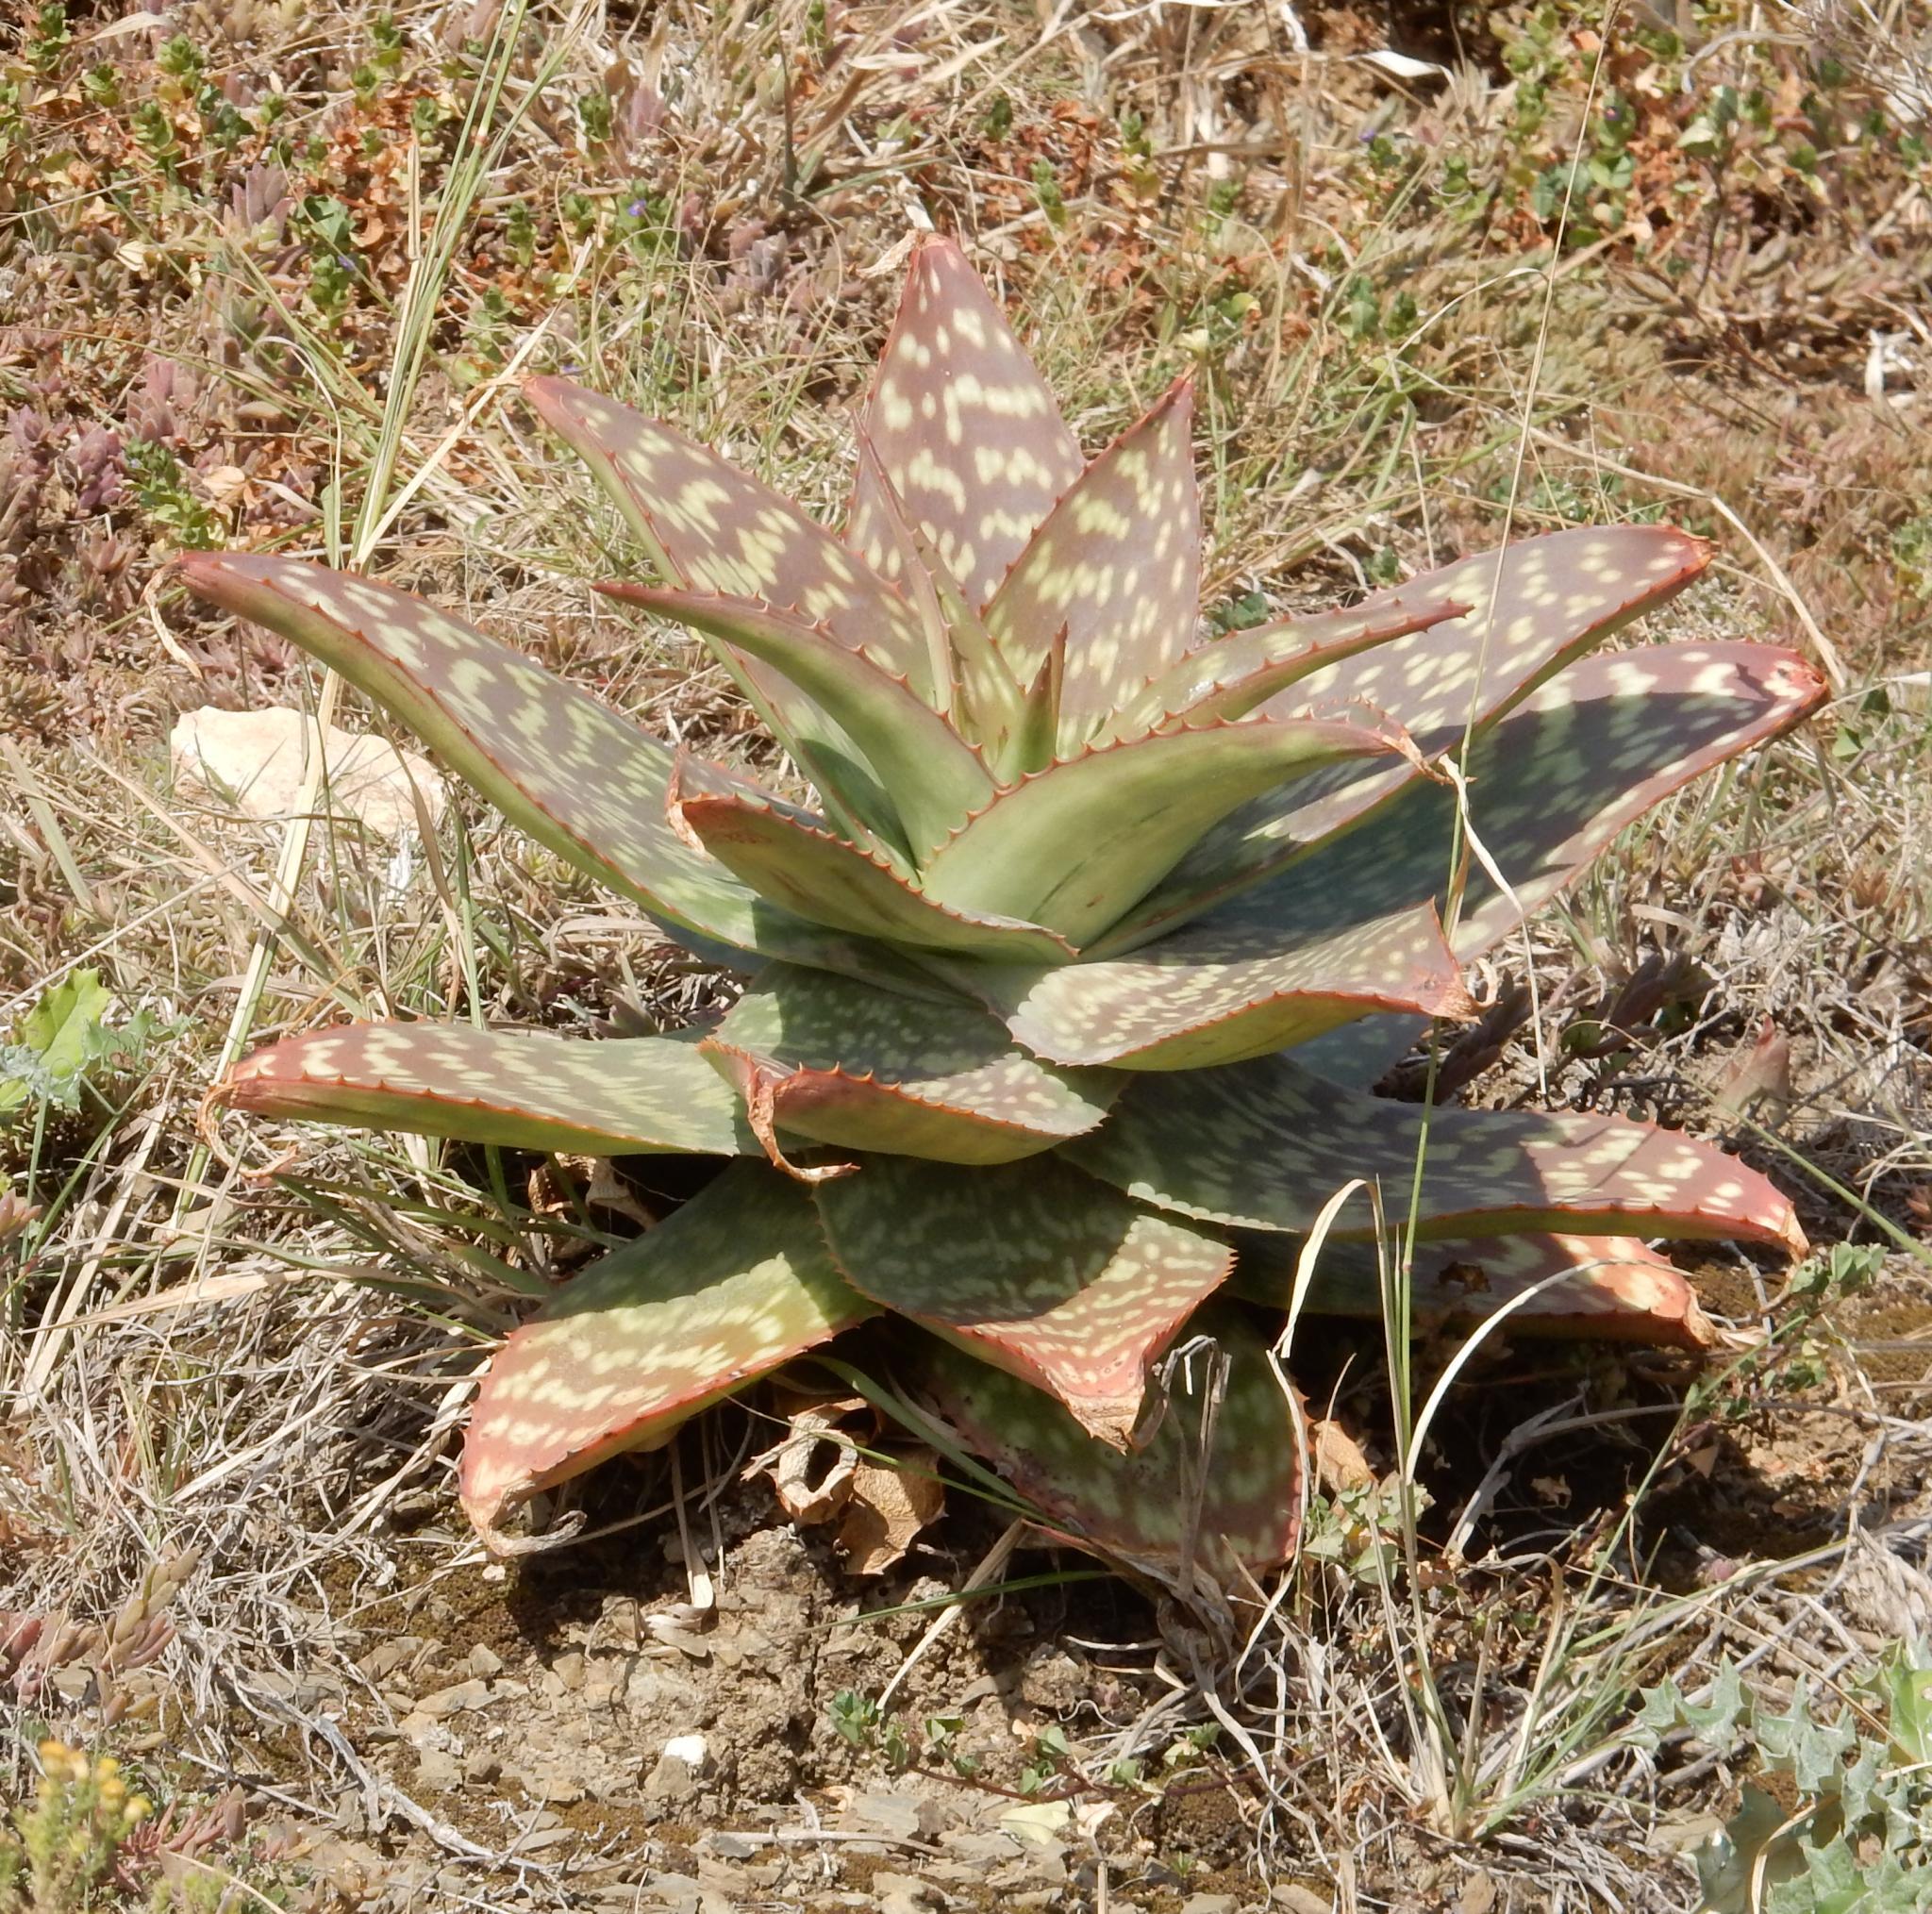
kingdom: Plantae
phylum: Tracheophyta
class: Liliopsida
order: Asparagales
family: Asphodelaceae
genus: Aloe
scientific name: Aloe maculata
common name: Broadleaf aloe
